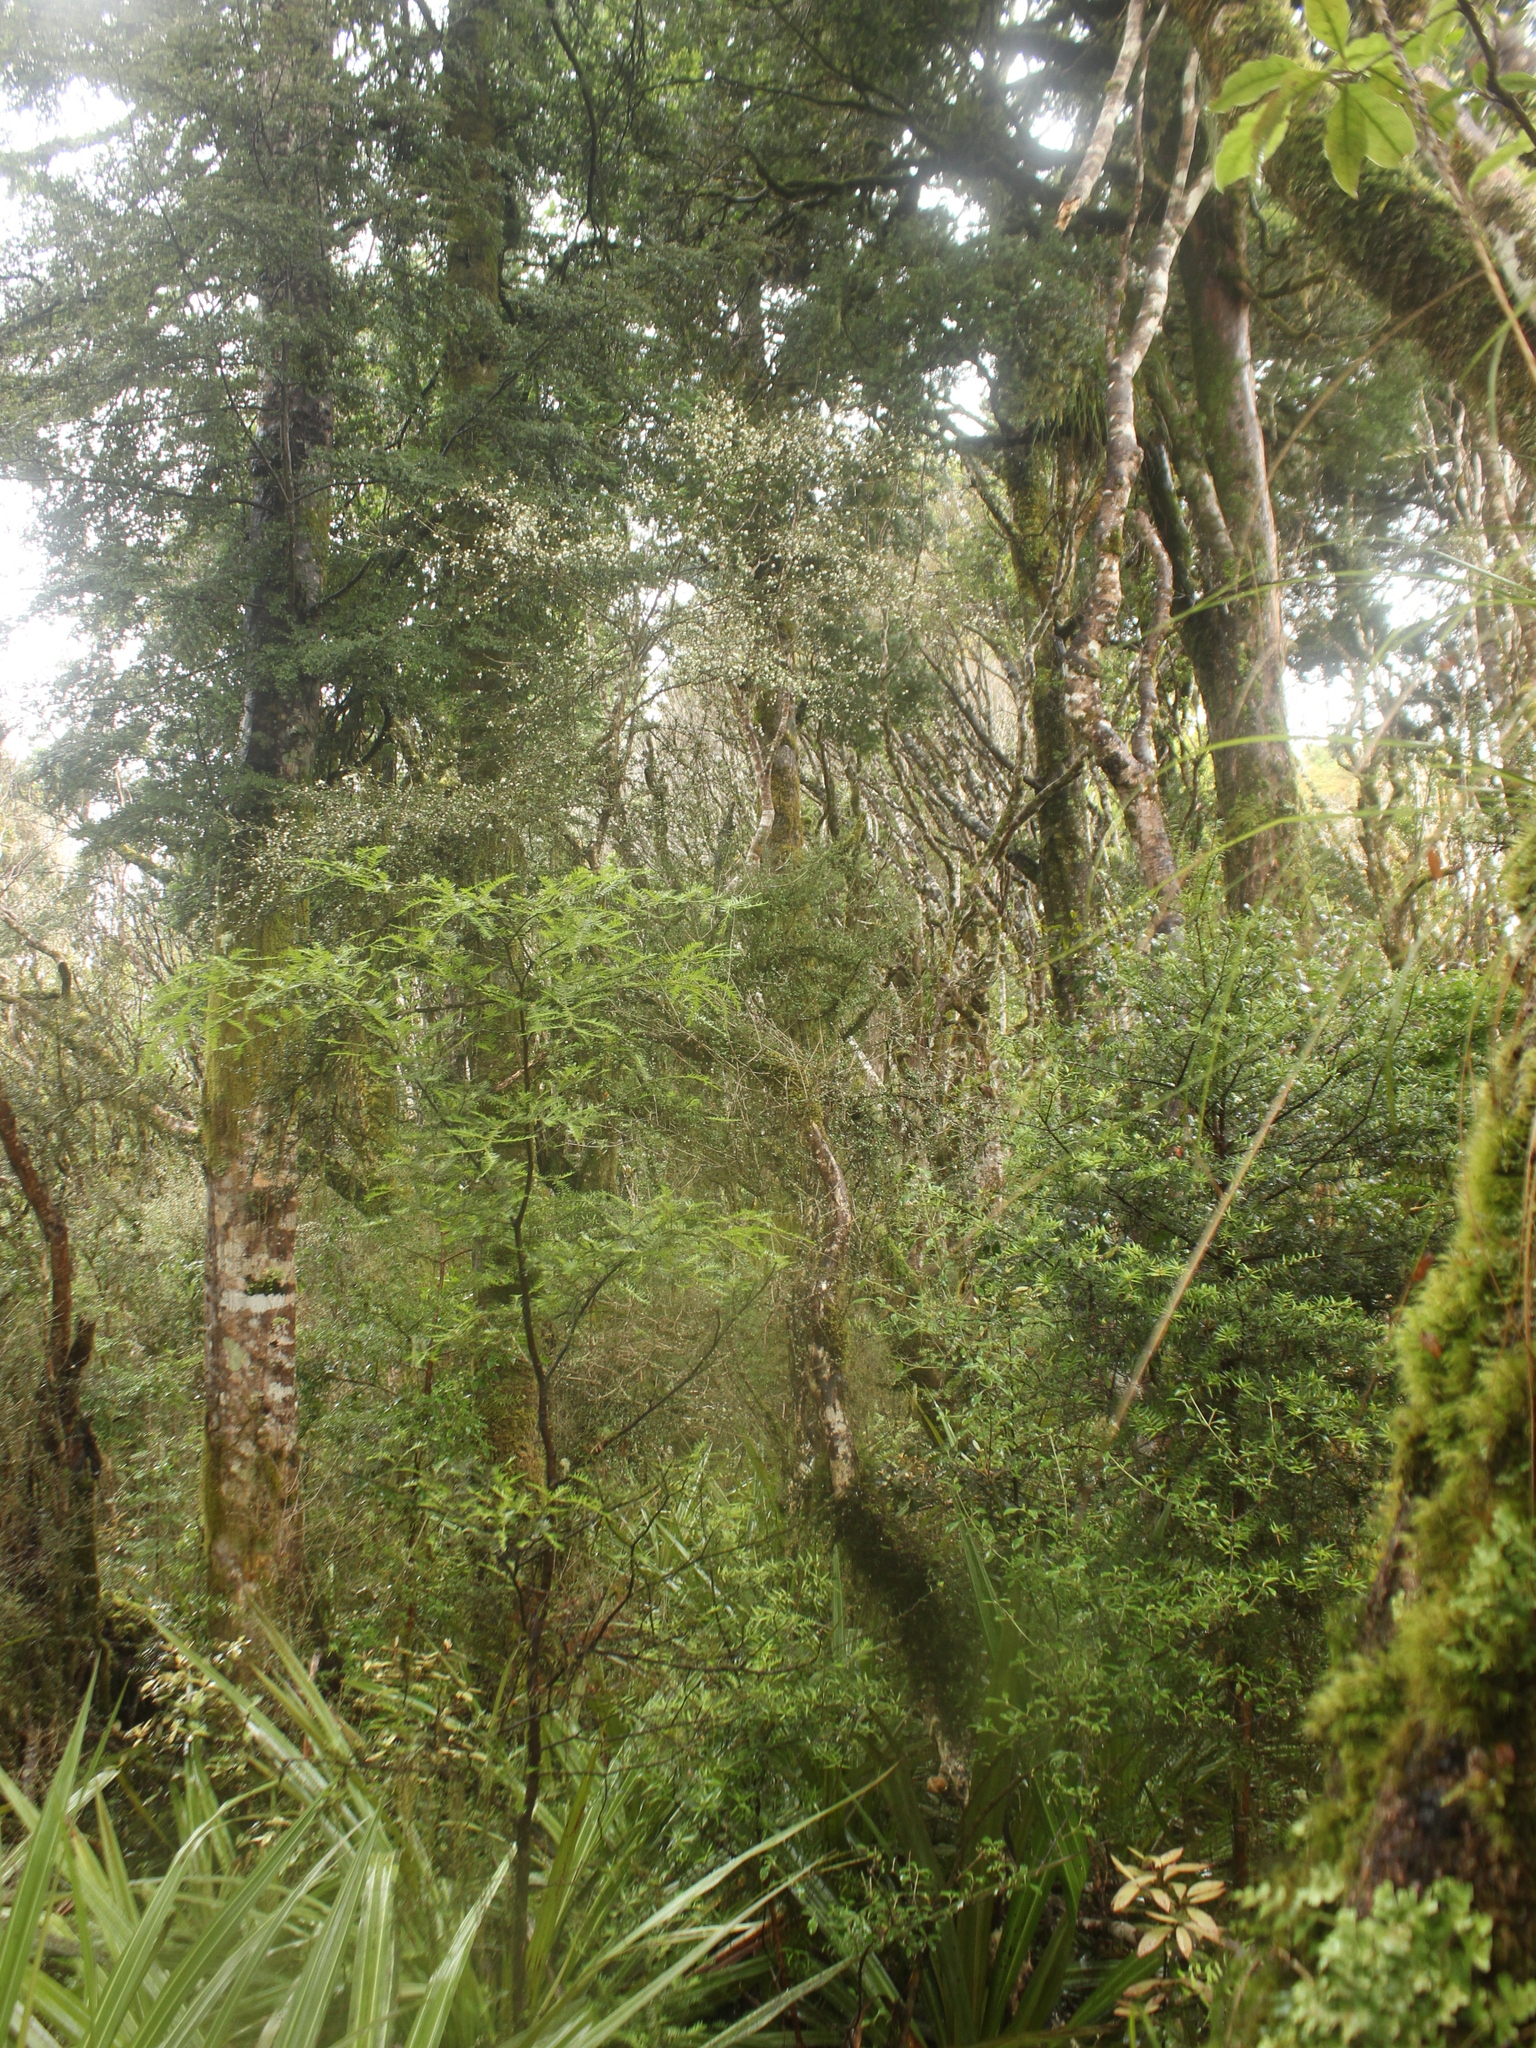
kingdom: Plantae
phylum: Tracheophyta
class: Magnoliopsida
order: Myrtales
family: Myrtaceae
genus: Neomyrtus
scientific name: Neomyrtus pedunculata
